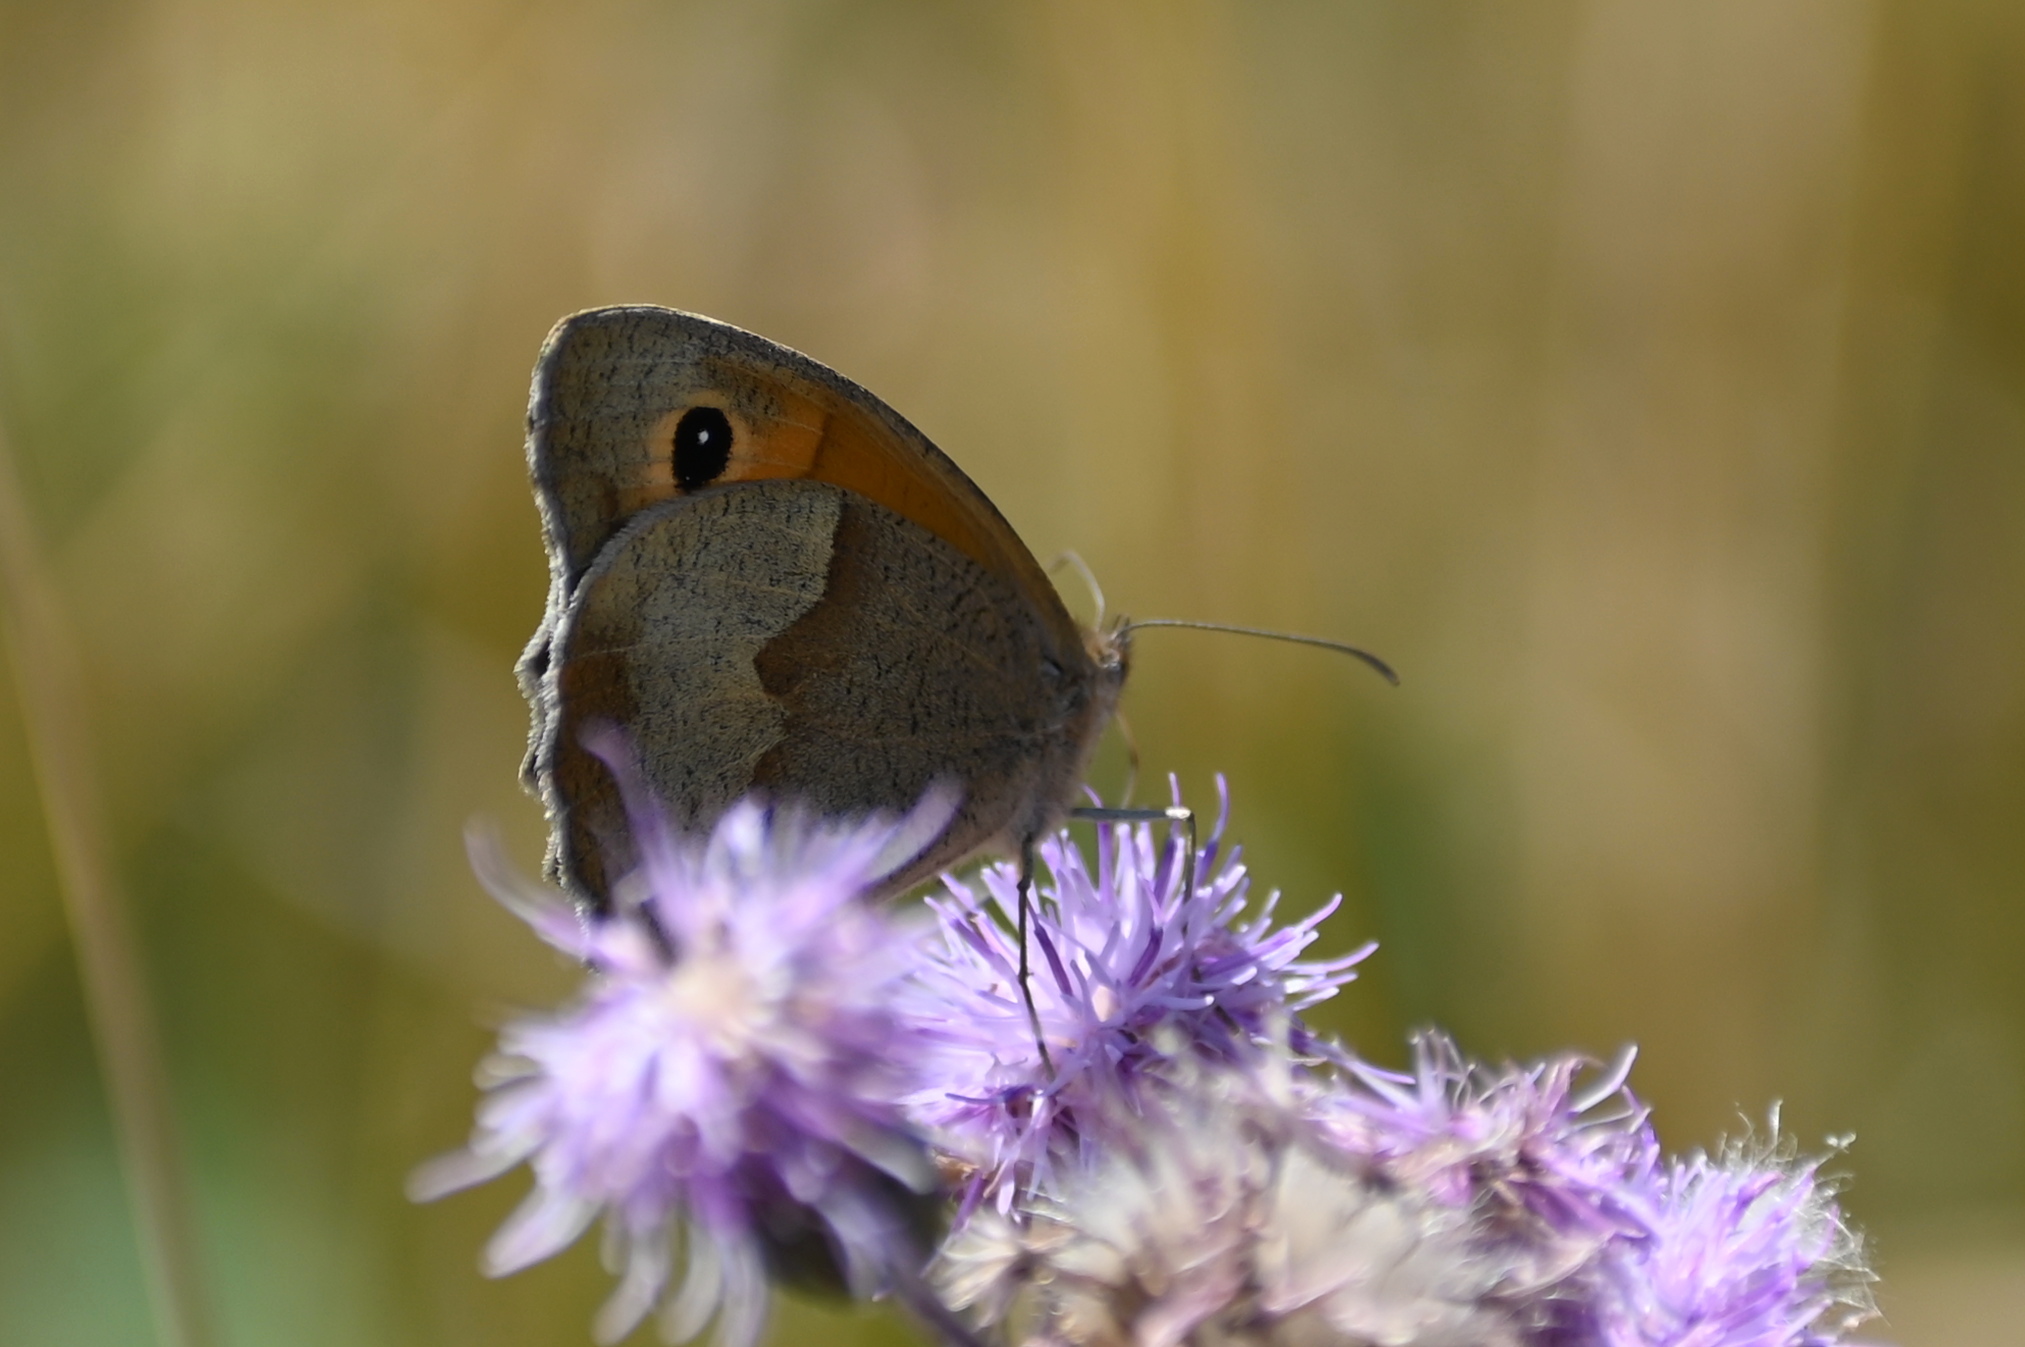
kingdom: Animalia
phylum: Arthropoda
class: Insecta
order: Lepidoptera
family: Nymphalidae
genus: Maniola
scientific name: Maniola jurtina
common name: Meadow brown
